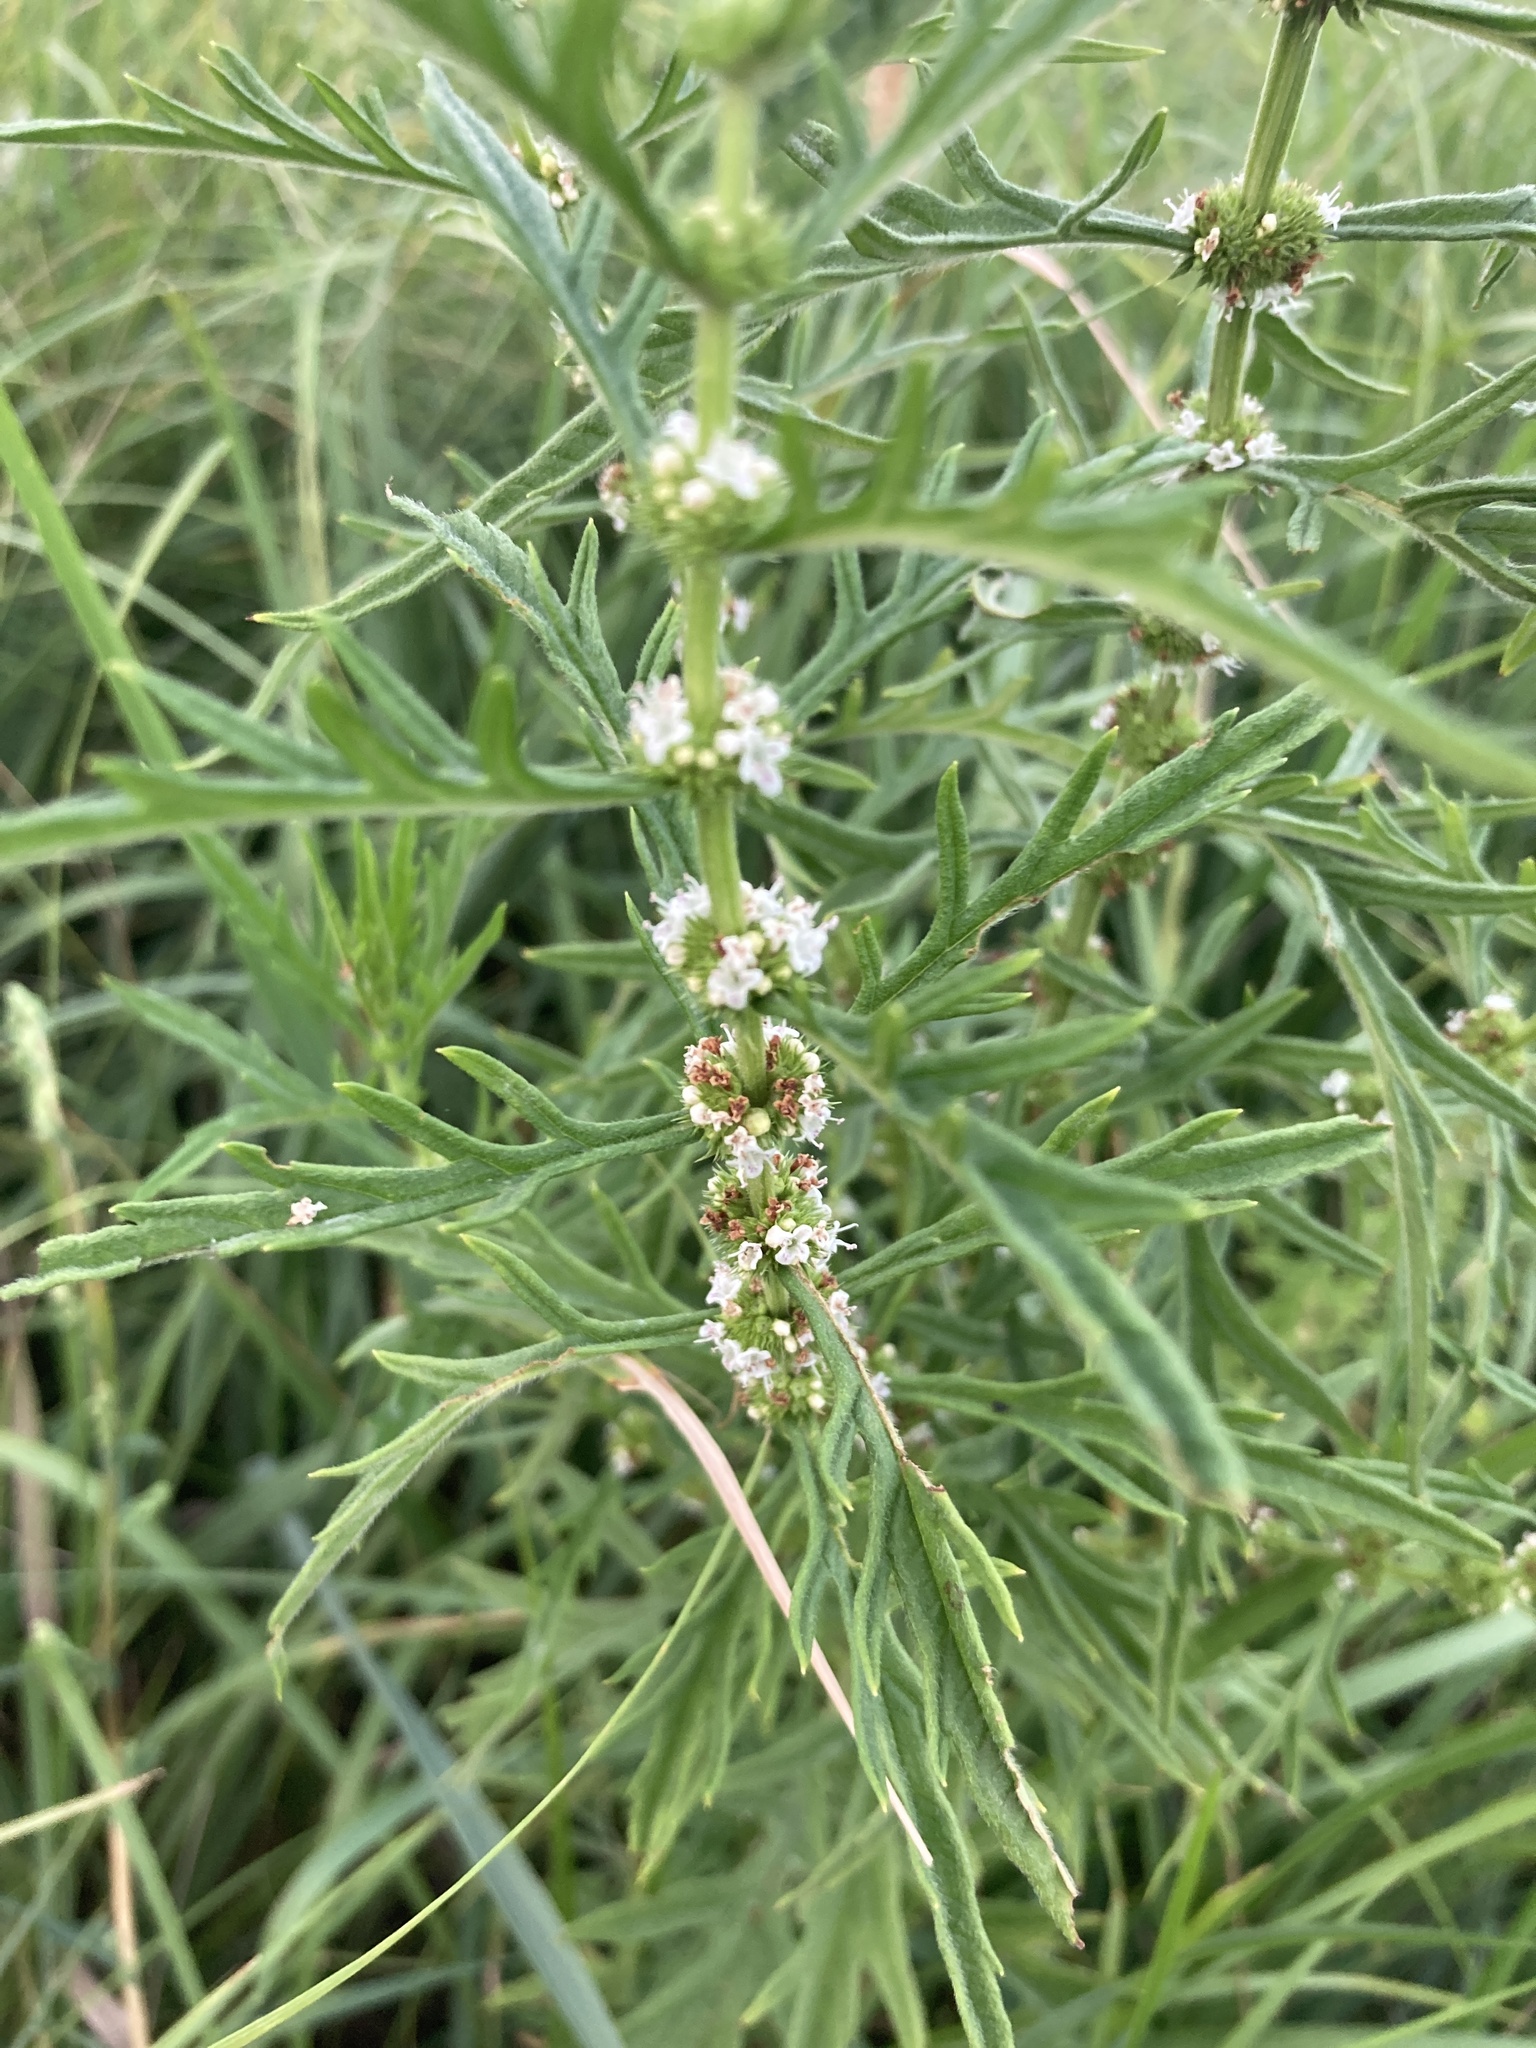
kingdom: Plantae
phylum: Tracheophyta
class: Magnoliopsida
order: Lamiales
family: Lamiaceae
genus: Lycopus
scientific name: Lycopus exaltatus
